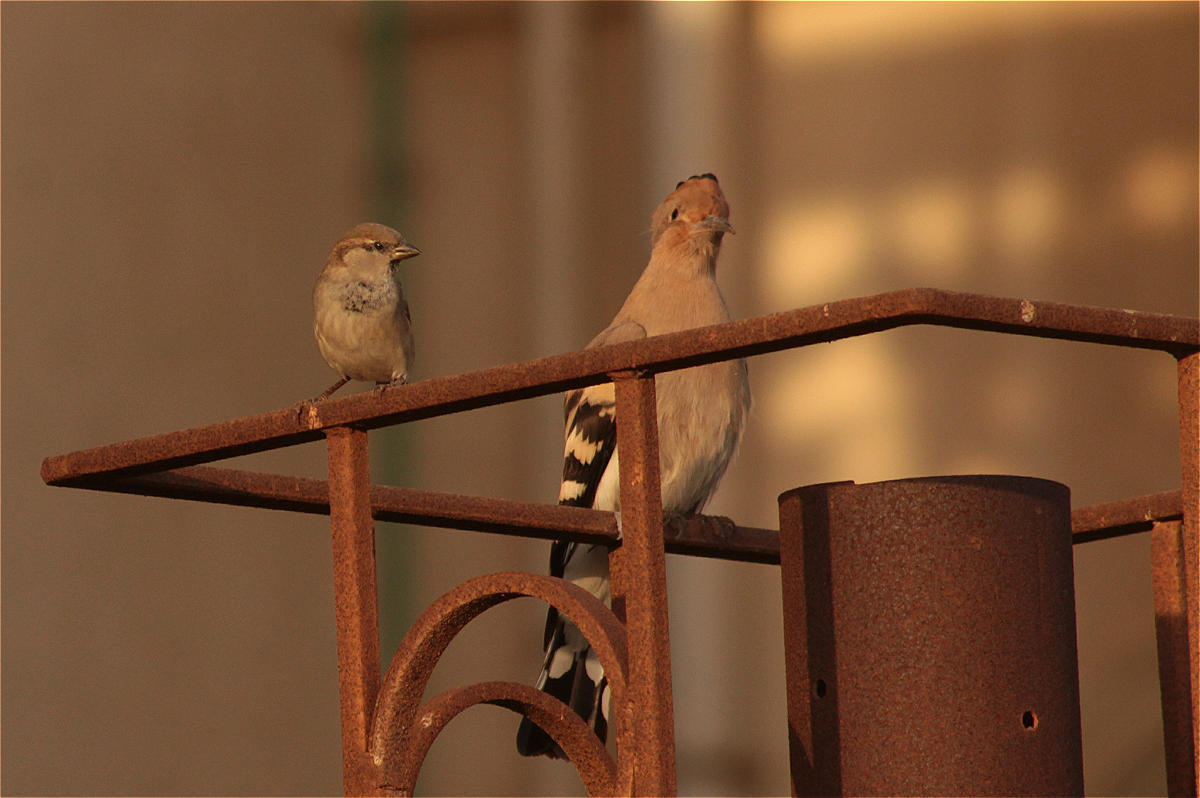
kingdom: Animalia
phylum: Chordata
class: Aves
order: Passeriformes
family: Passeridae
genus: Passer
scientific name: Passer domesticus
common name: House sparrow
